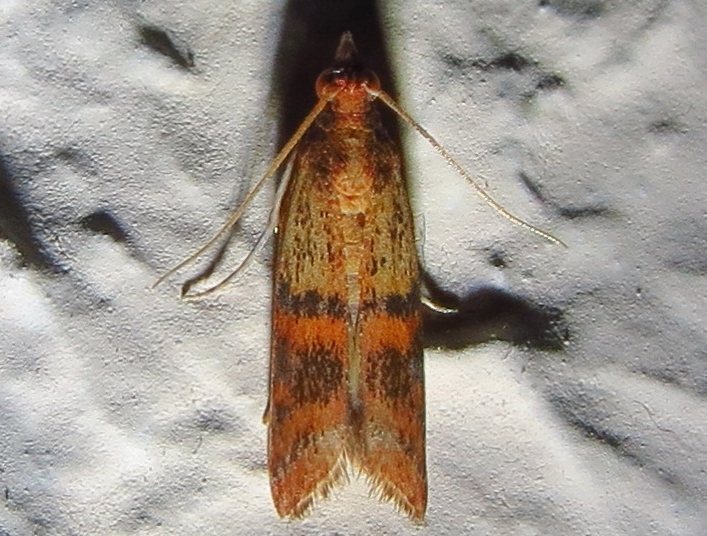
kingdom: Animalia
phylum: Arthropoda
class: Insecta
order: Lepidoptera
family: Pyralidae
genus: Plodia
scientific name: Plodia interpunctella
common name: Indian meal moth
